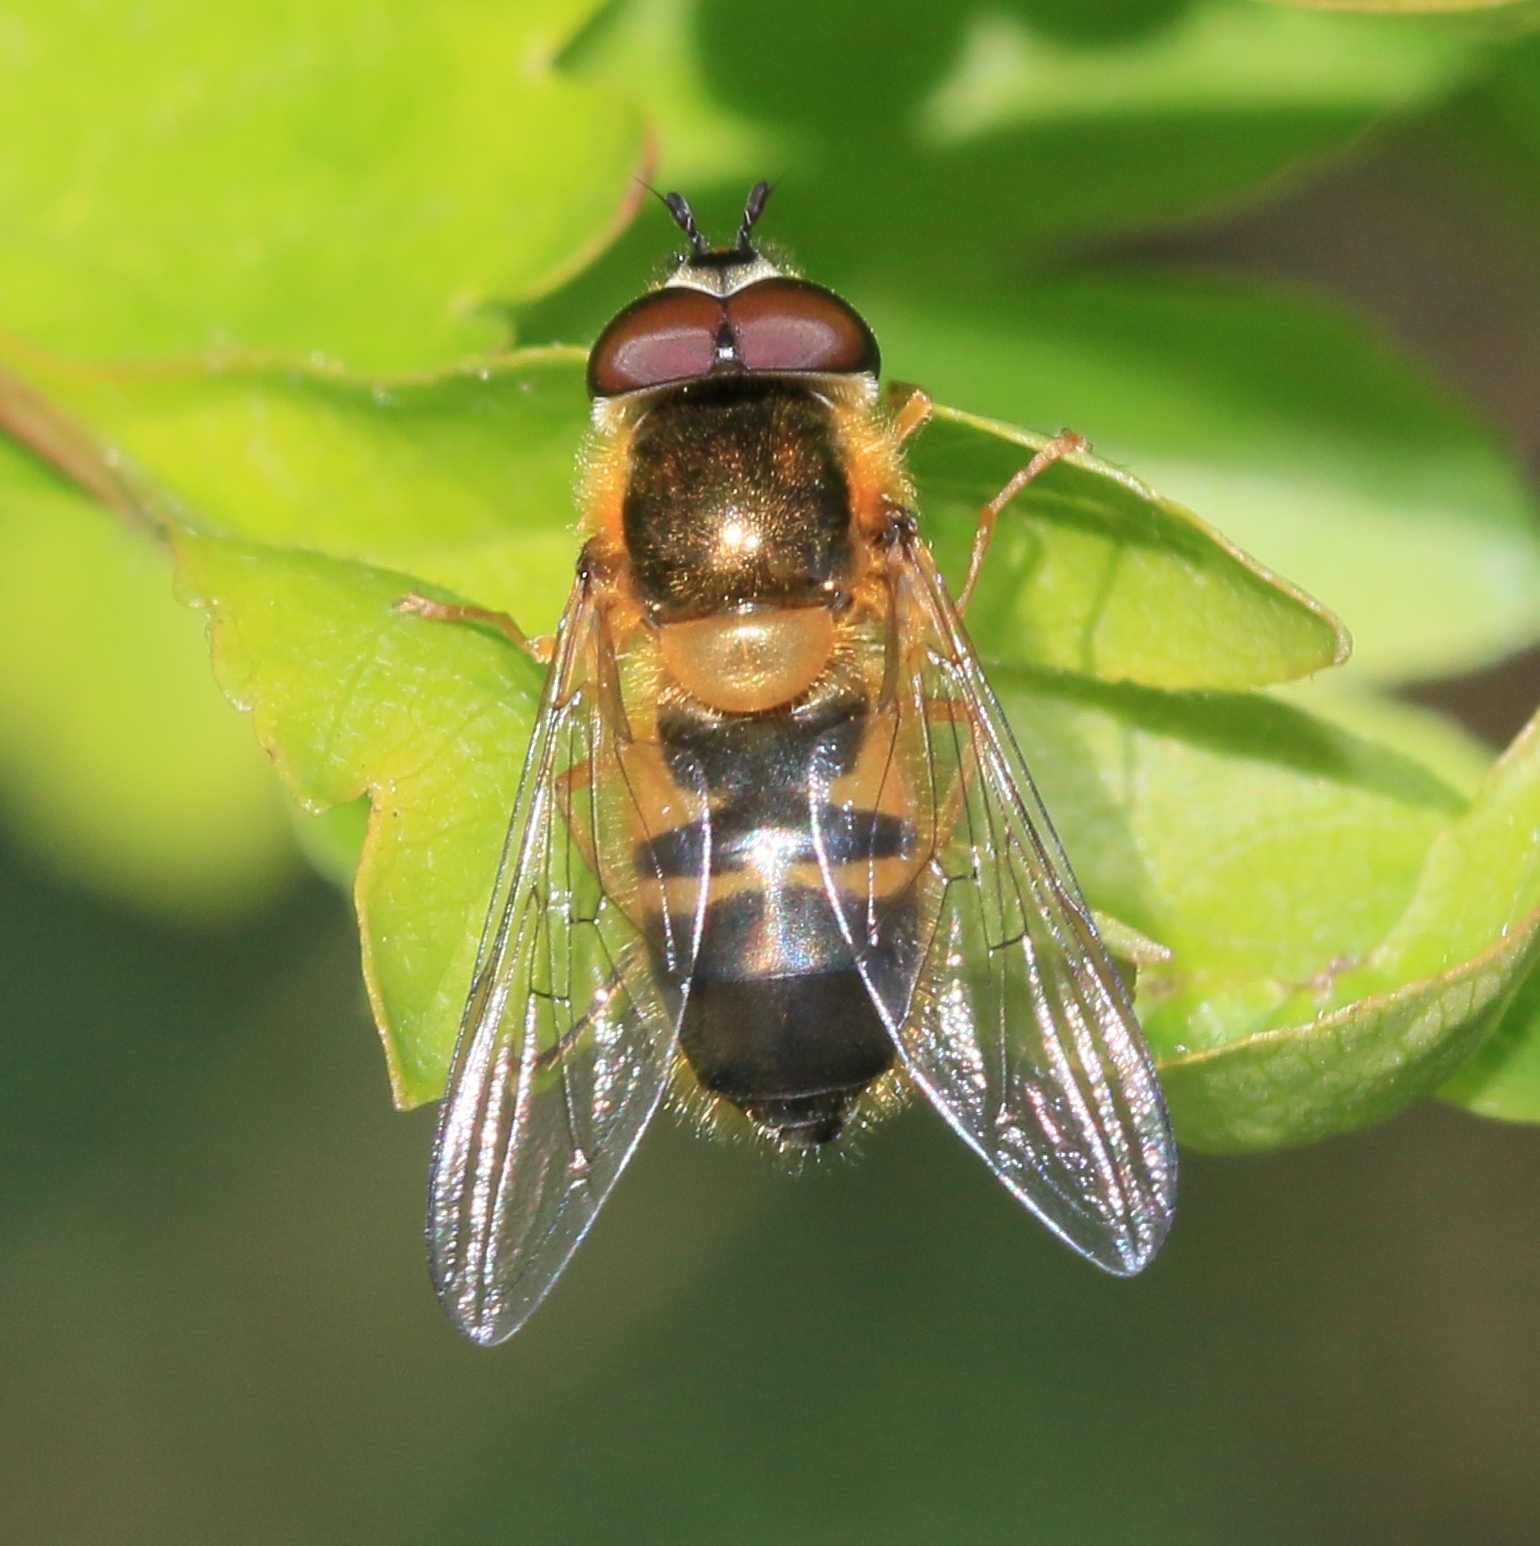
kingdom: Animalia
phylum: Arthropoda
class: Insecta
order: Diptera
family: Syrphidae
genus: Epistrophe
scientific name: Epistrophe eligans
